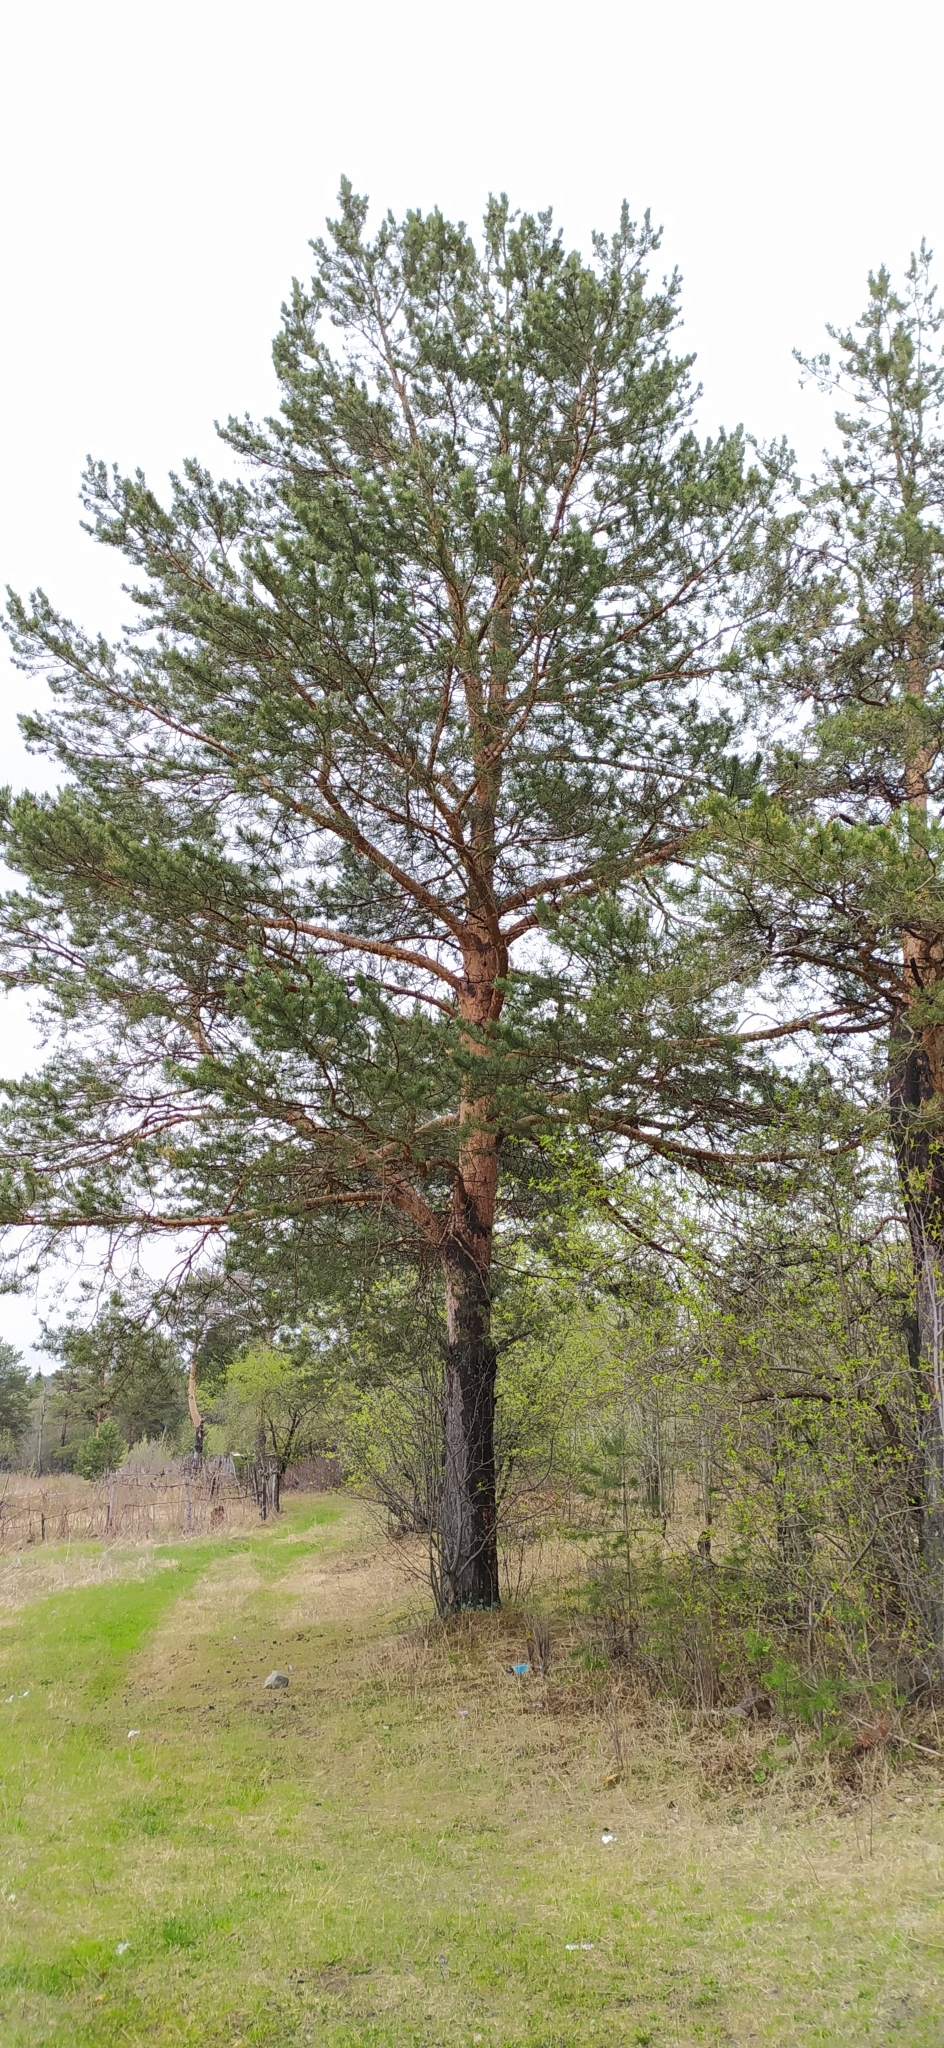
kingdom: Plantae
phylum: Tracheophyta
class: Pinopsida
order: Pinales
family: Pinaceae
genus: Pinus
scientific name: Pinus sylvestris
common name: Scots pine
